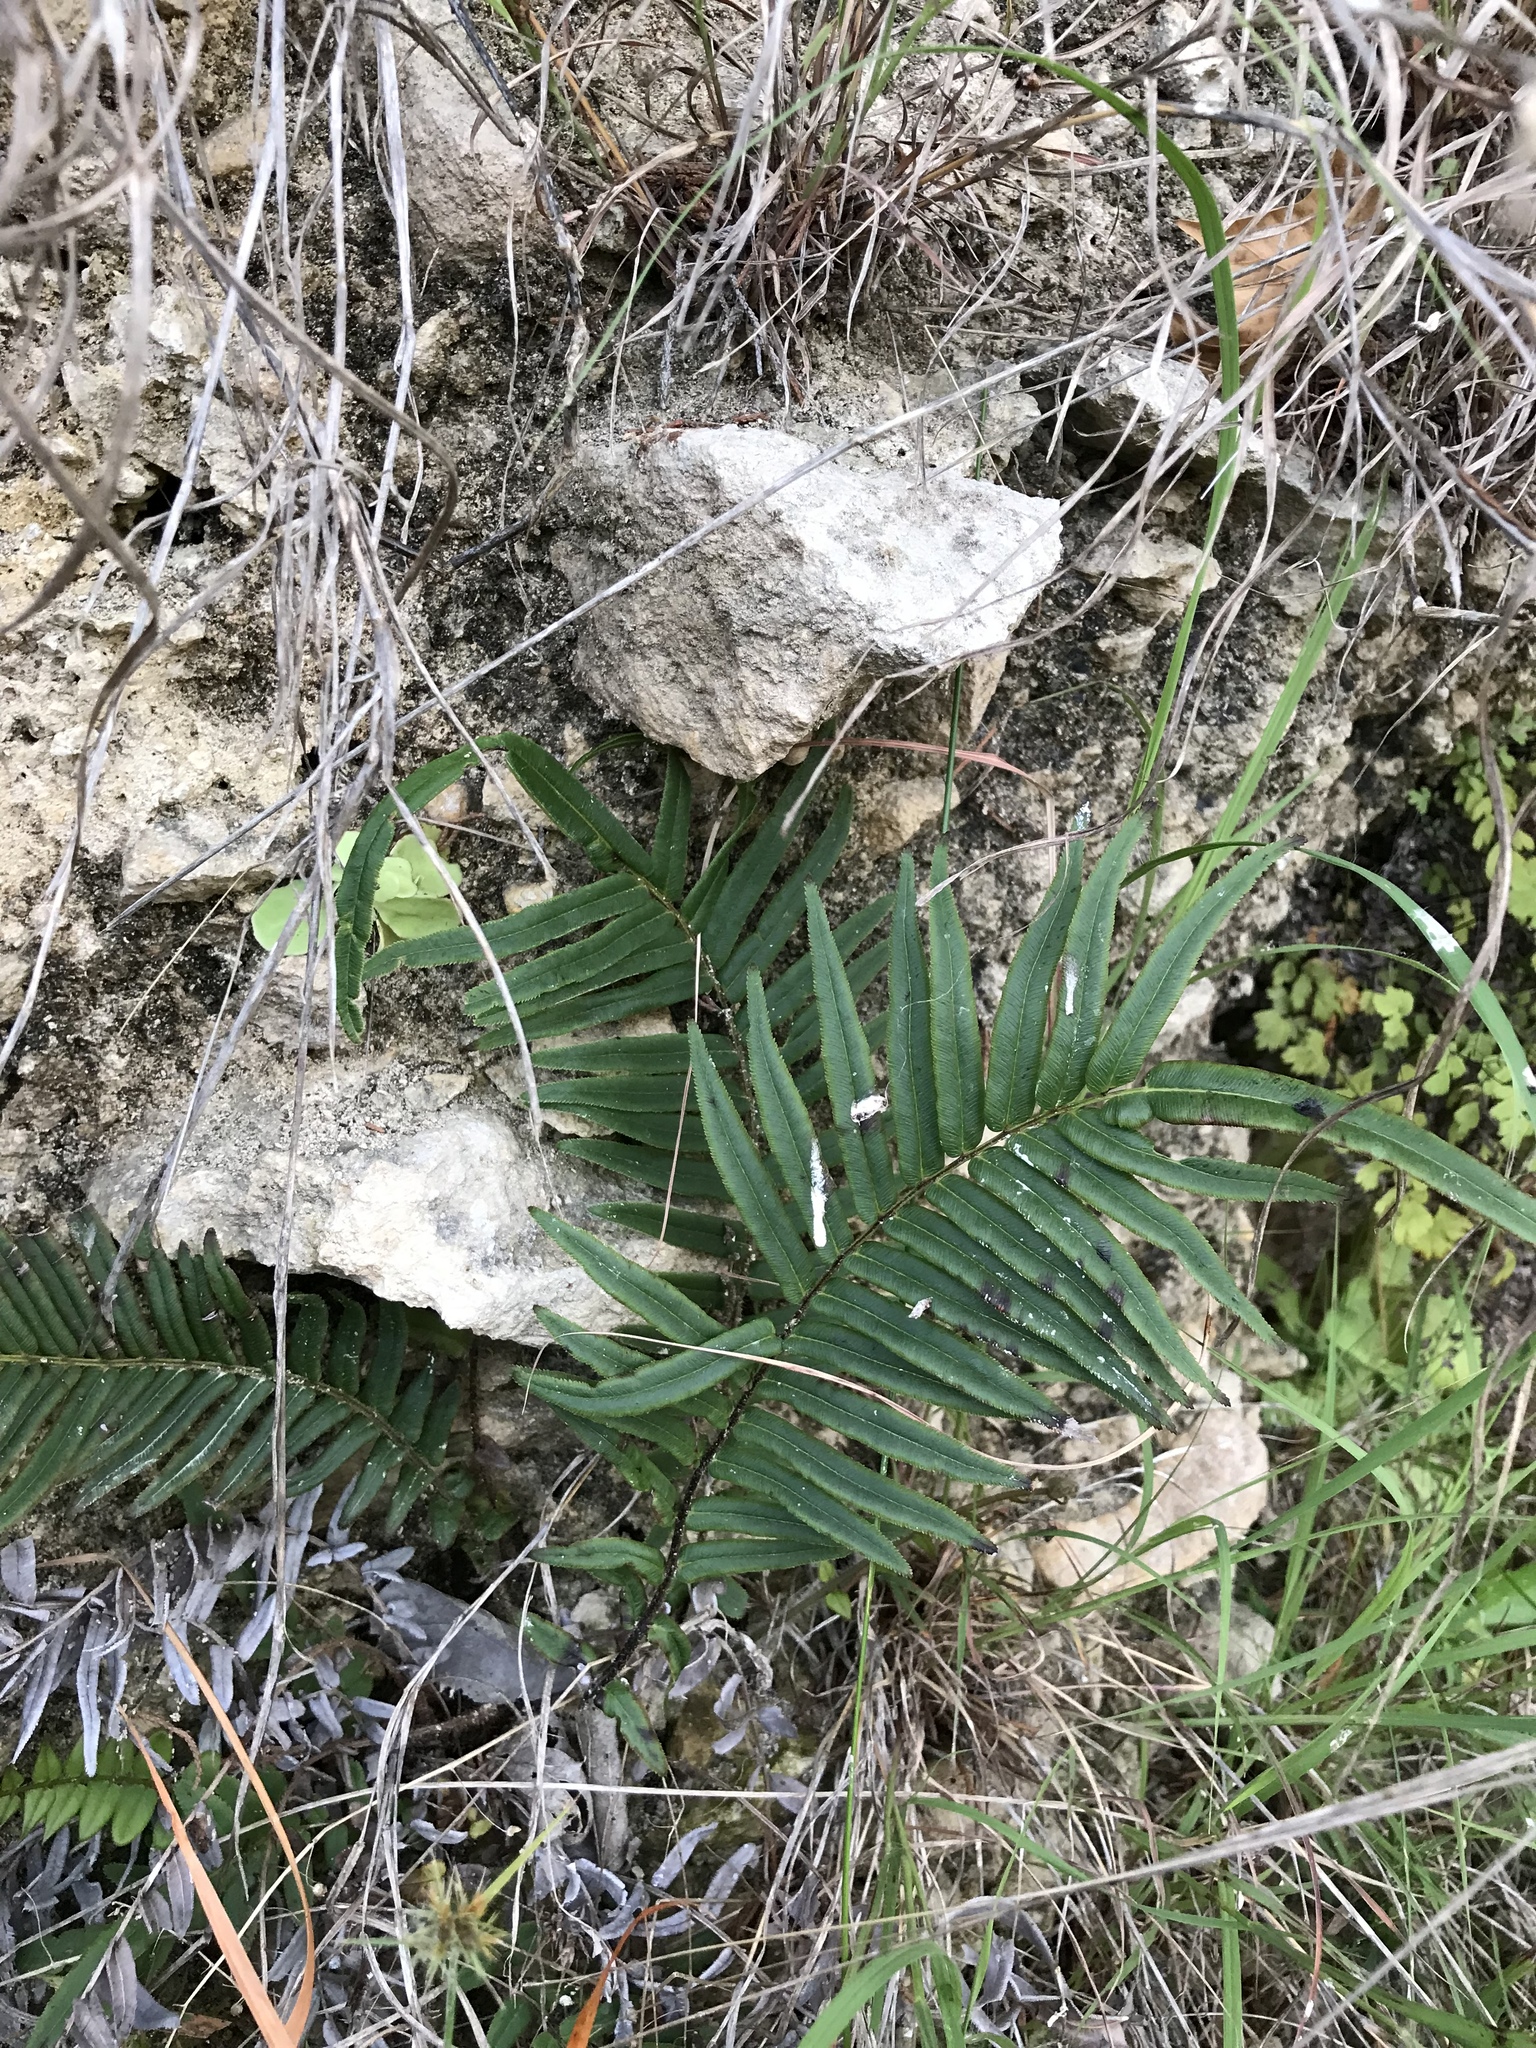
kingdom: Plantae
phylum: Tracheophyta
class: Polypodiopsida
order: Polypodiales
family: Pteridaceae
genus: Pteris
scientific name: Pteris vittata
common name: Ladder brake
